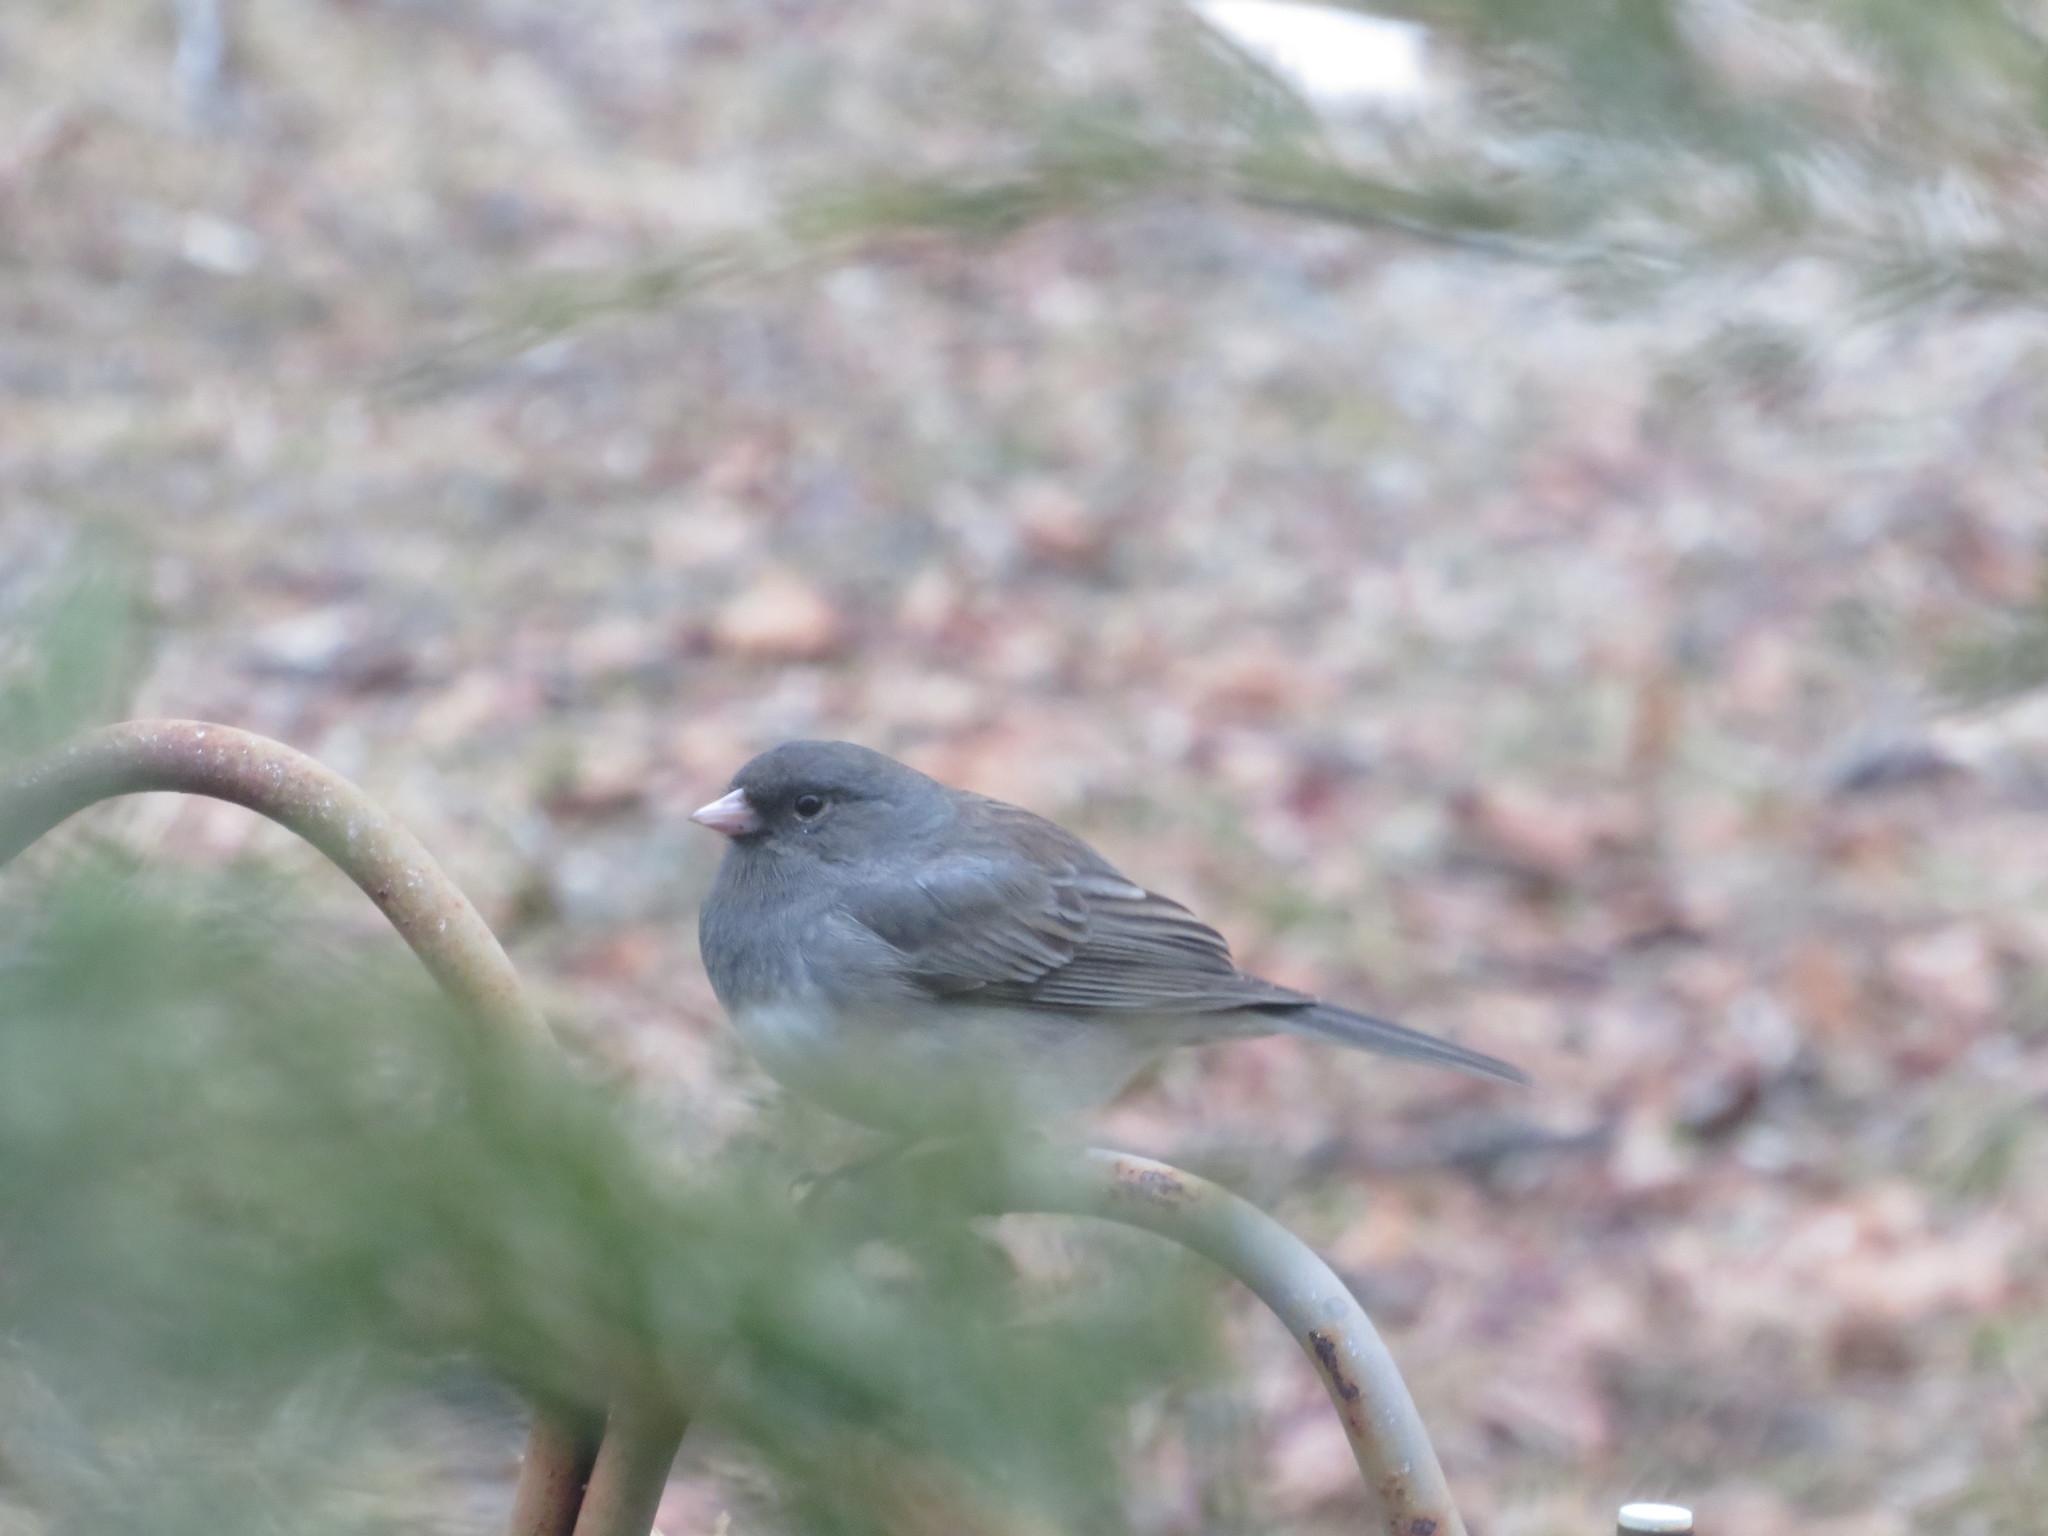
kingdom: Animalia
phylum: Chordata
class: Aves
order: Passeriformes
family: Passerellidae
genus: Junco
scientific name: Junco hyemalis
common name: Dark-eyed junco
